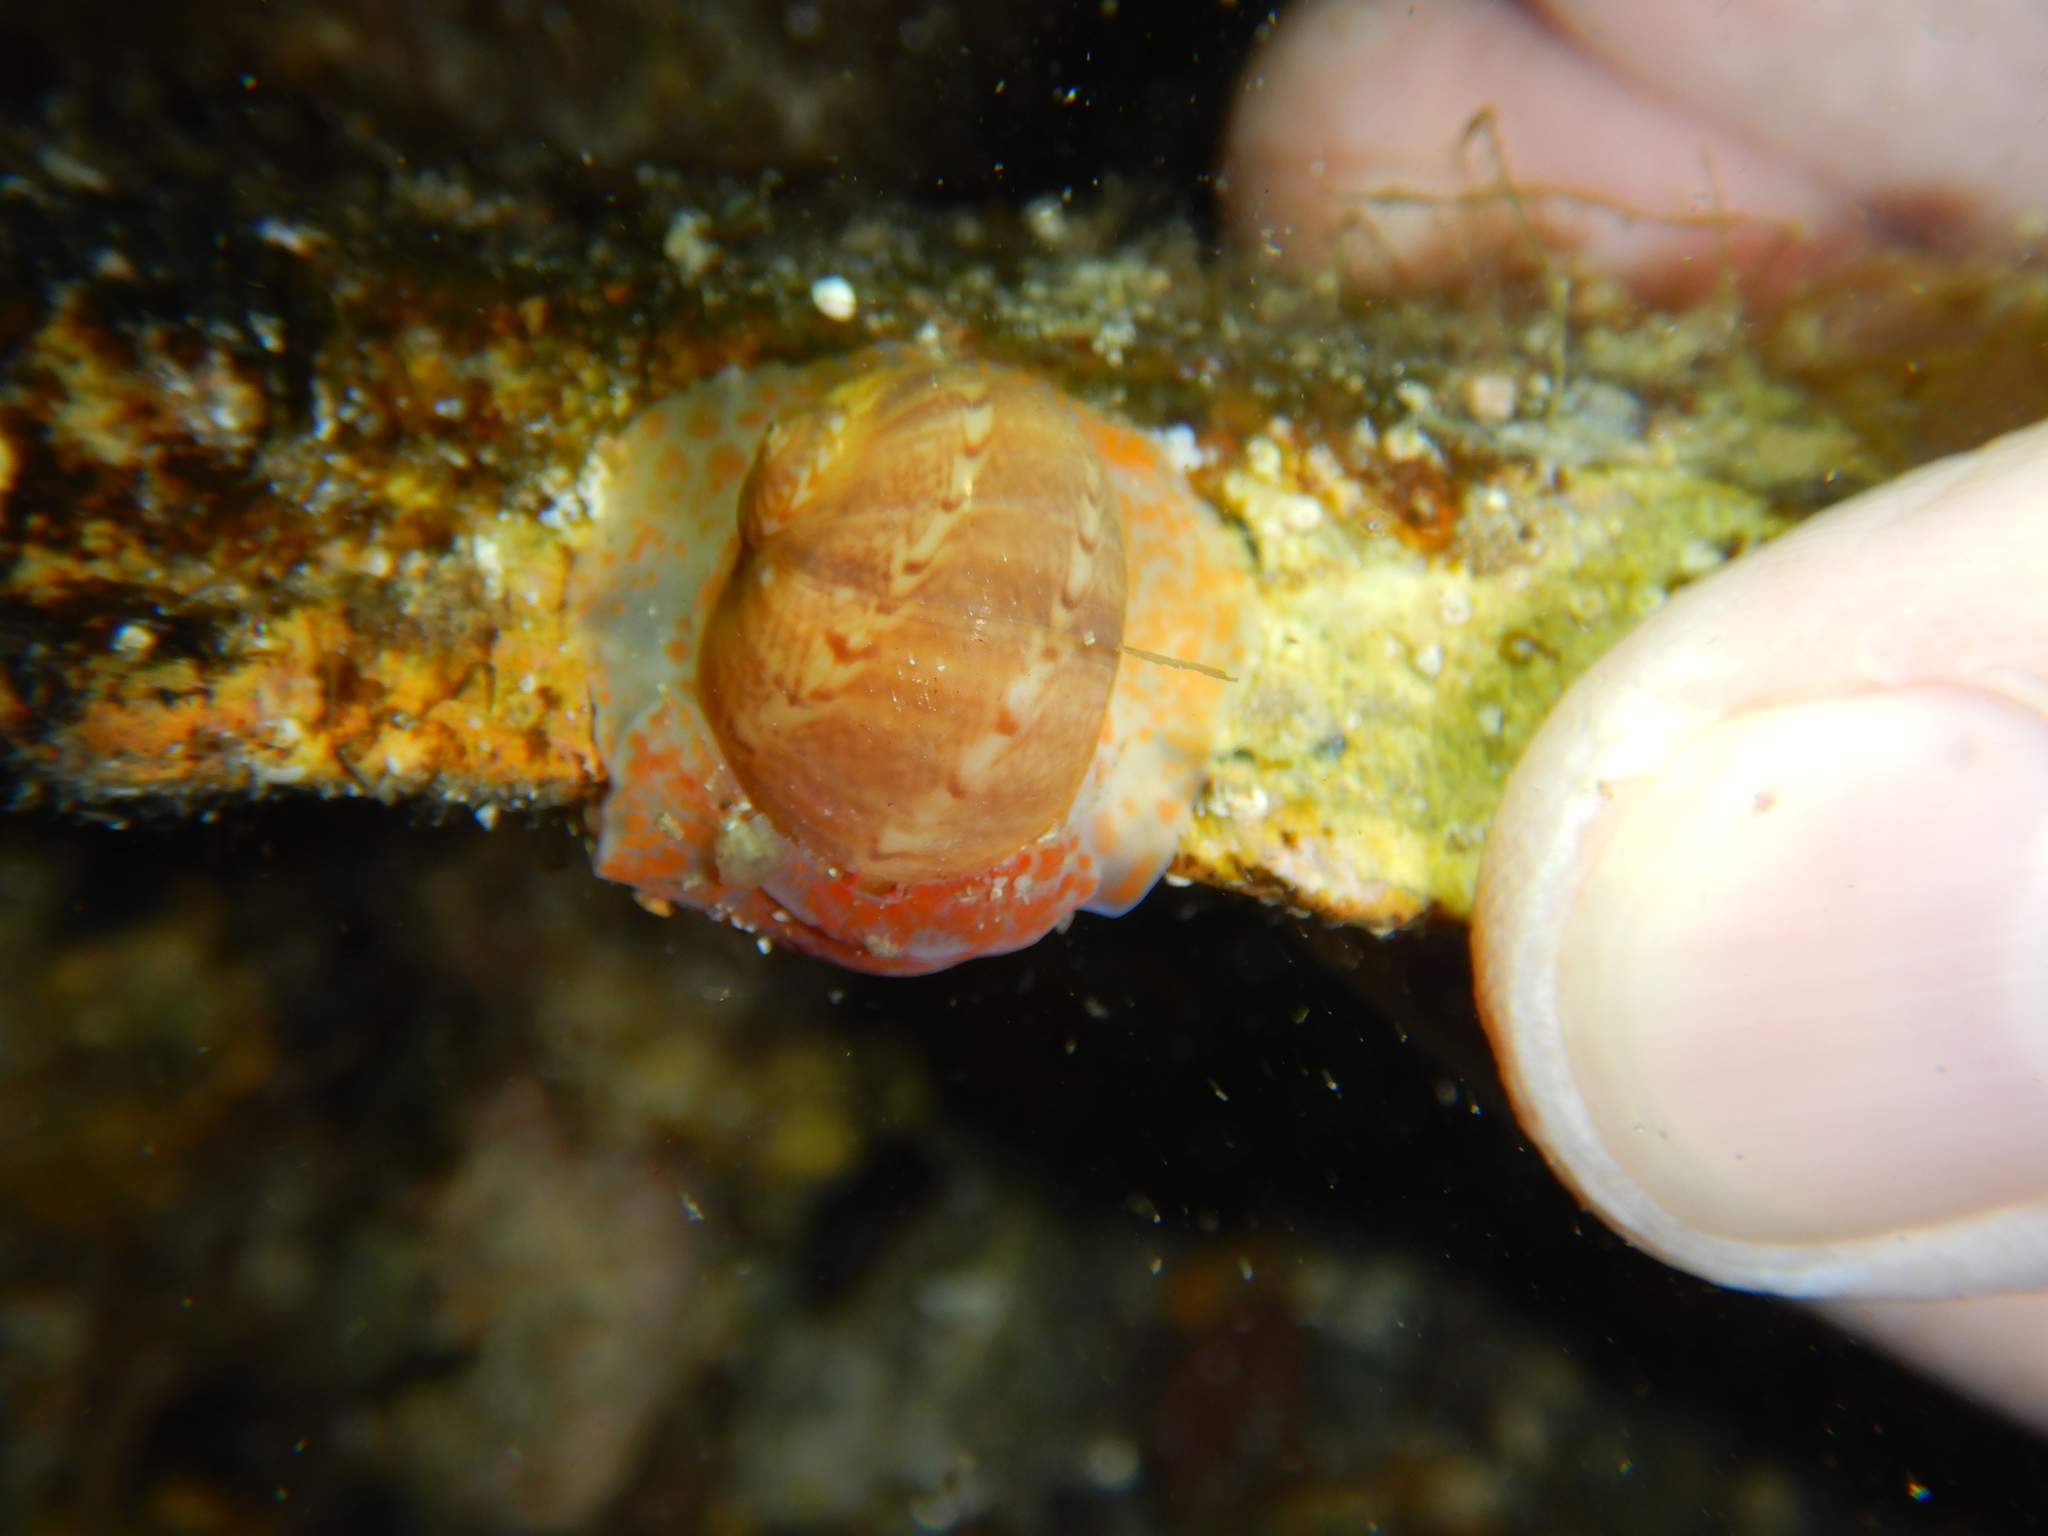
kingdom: Animalia
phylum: Mollusca
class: Gastropoda
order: Littorinimorpha
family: Naticidae
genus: Notocochlis
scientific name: Notocochlis dillwynii
